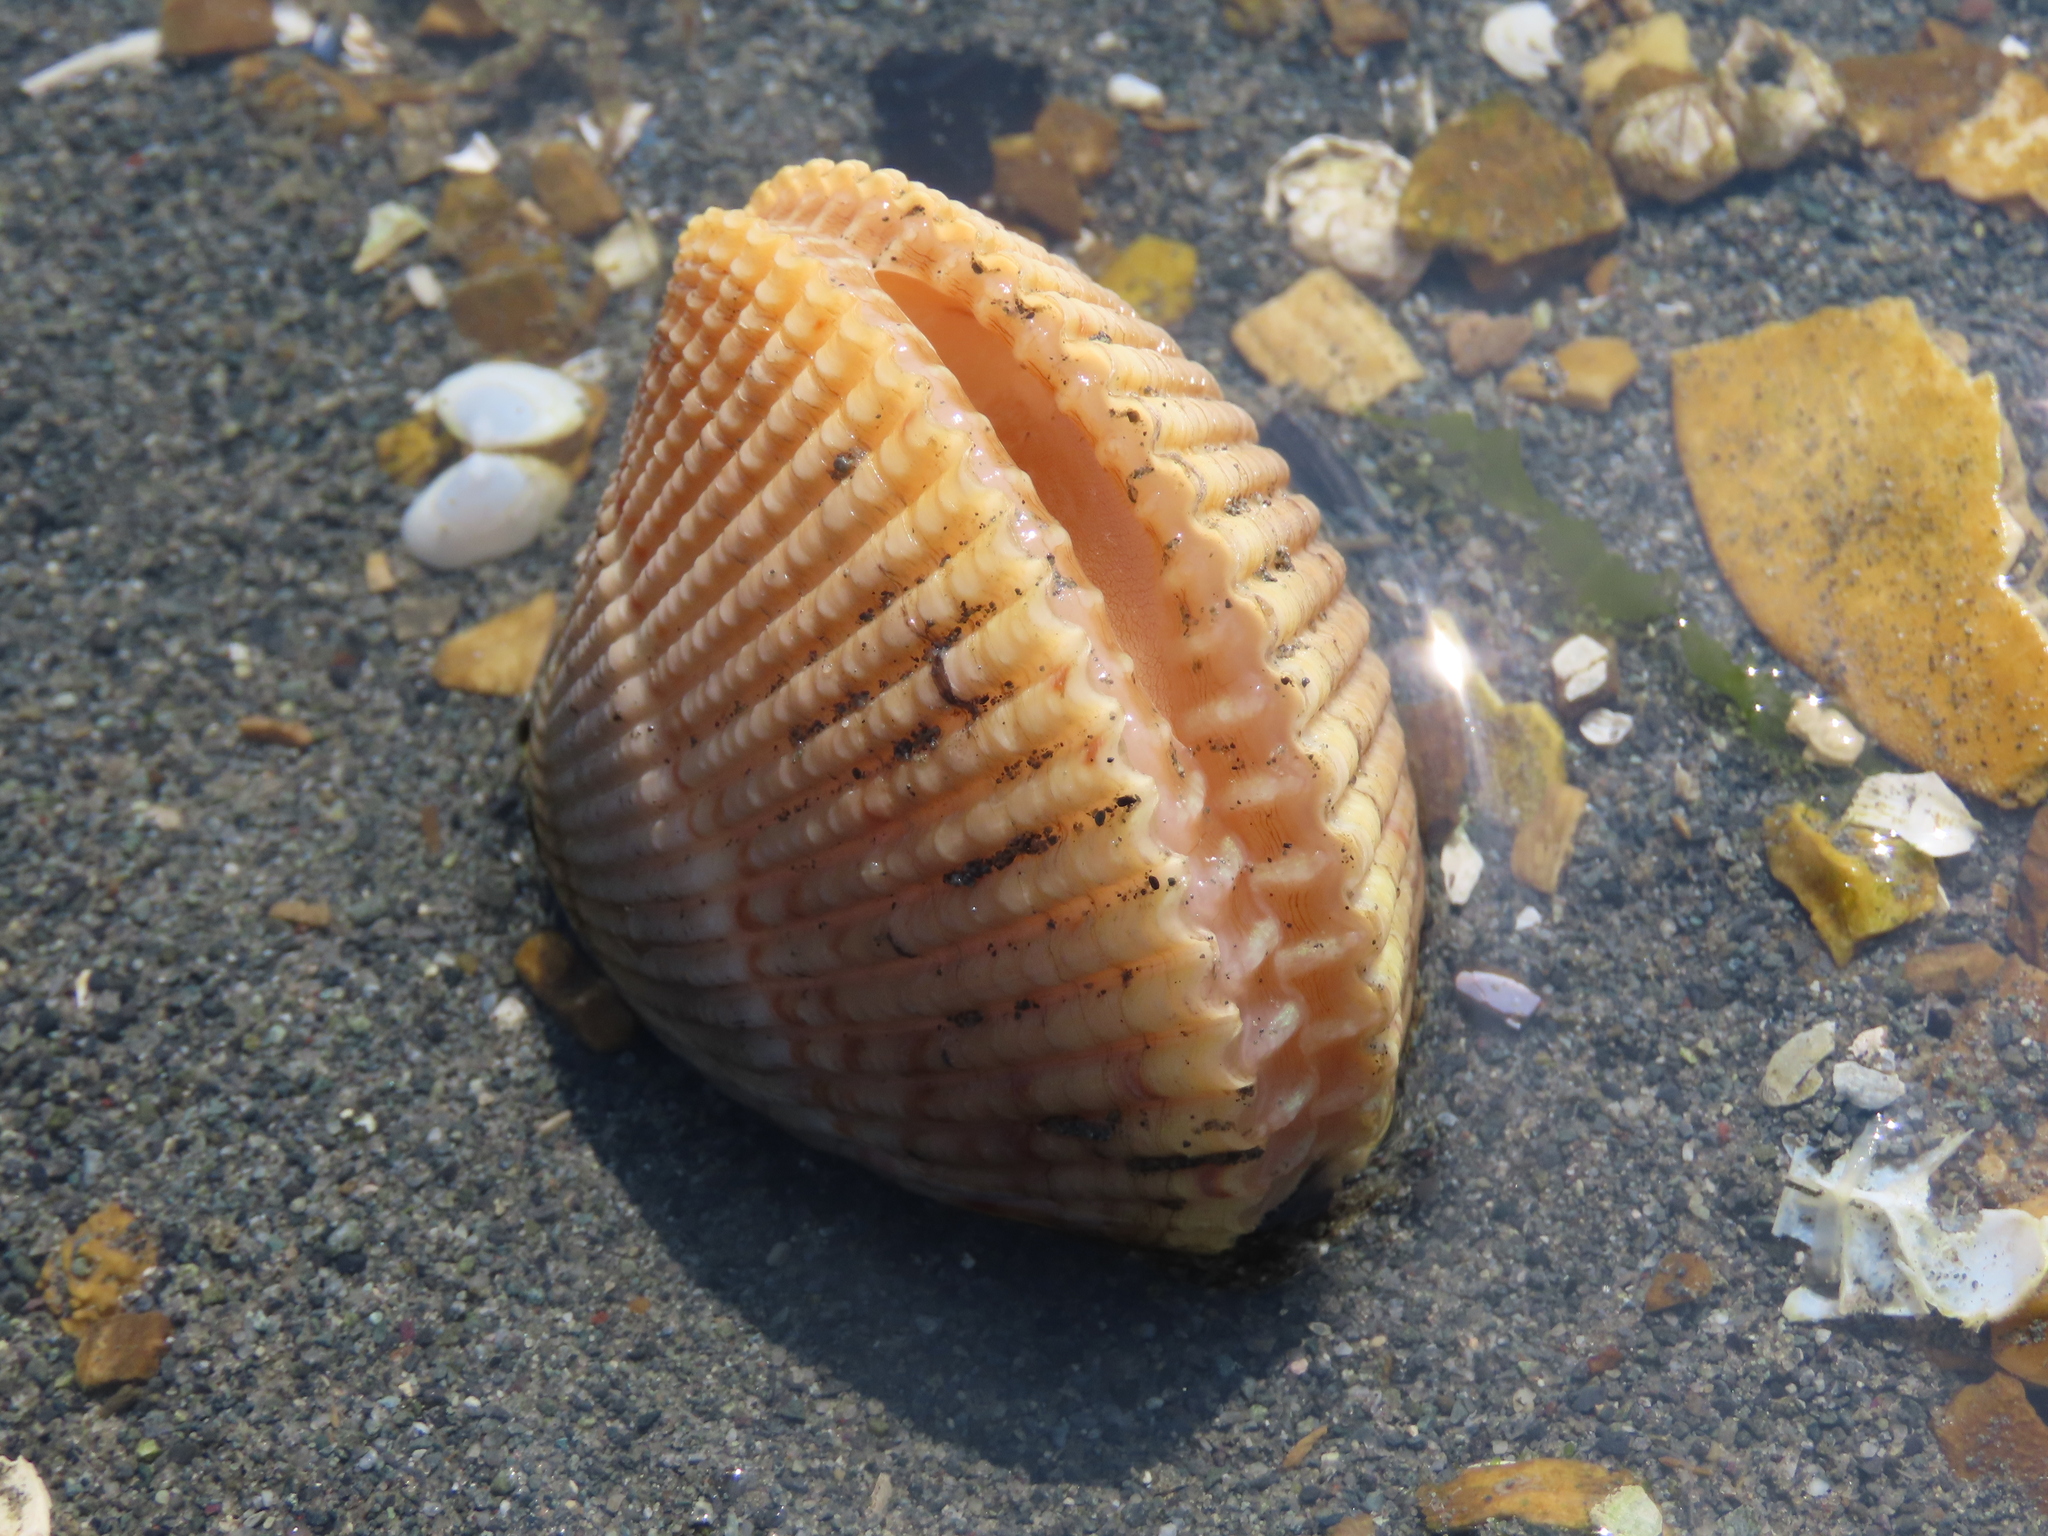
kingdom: Animalia
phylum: Mollusca
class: Bivalvia
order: Cardiida
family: Cardiidae
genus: Clinocardium
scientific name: Clinocardium nuttallii
